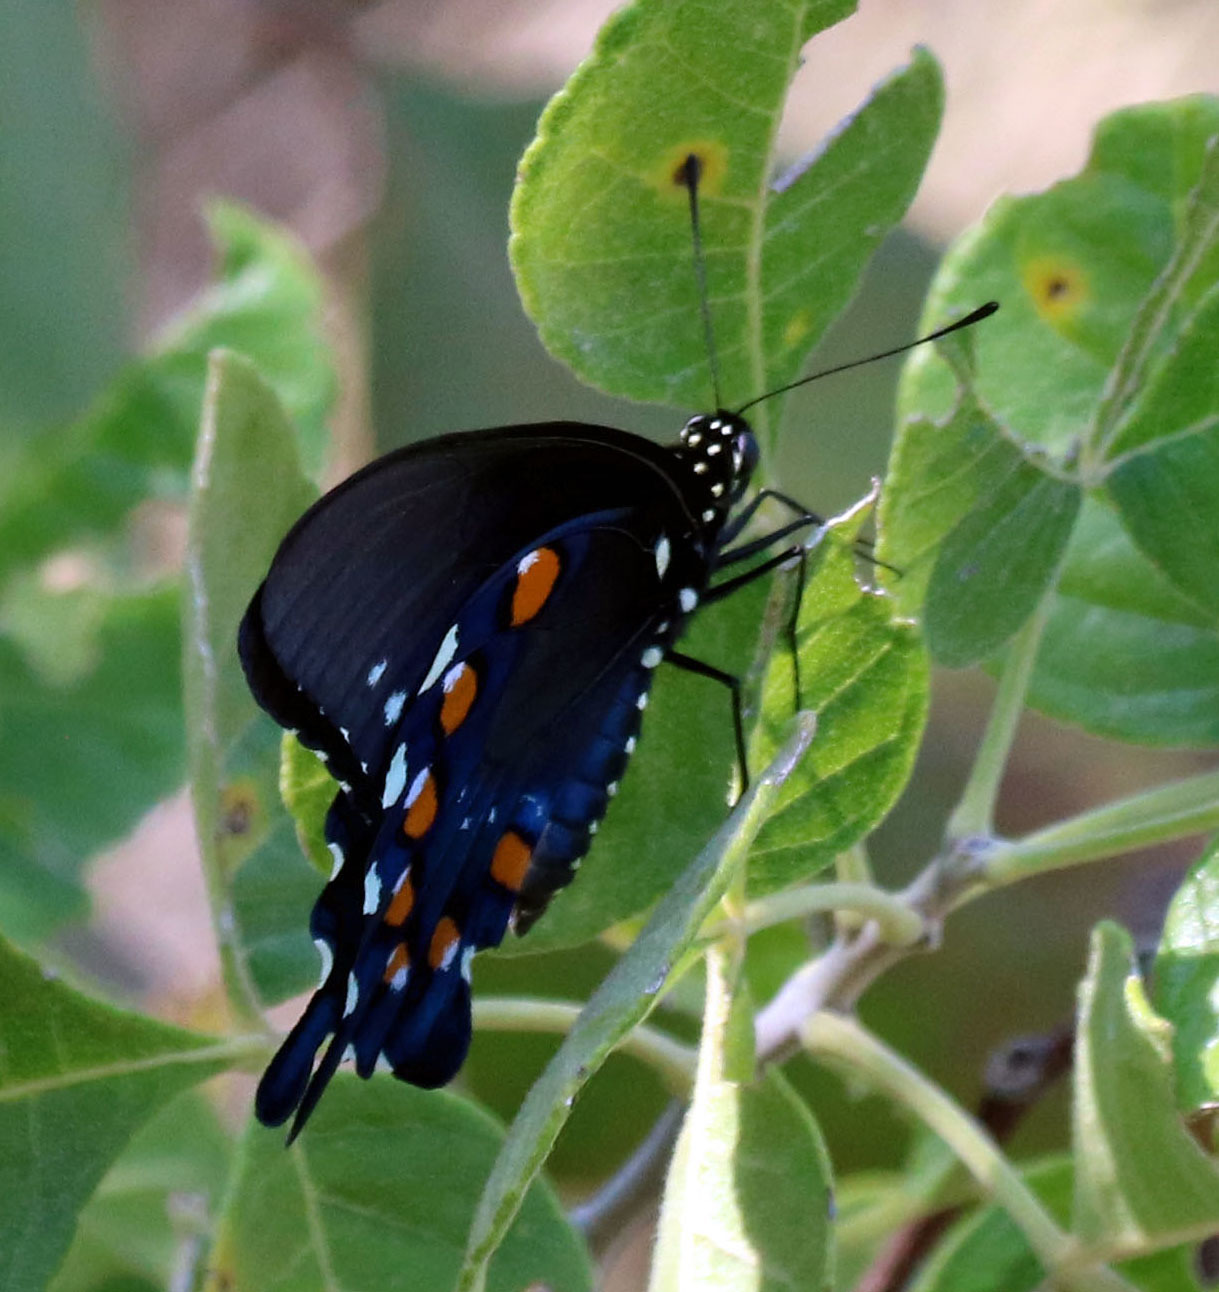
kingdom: Animalia
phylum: Arthropoda
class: Insecta
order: Lepidoptera
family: Papilionidae
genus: Battus
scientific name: Battus philenor
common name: Pipevine swallowtail
